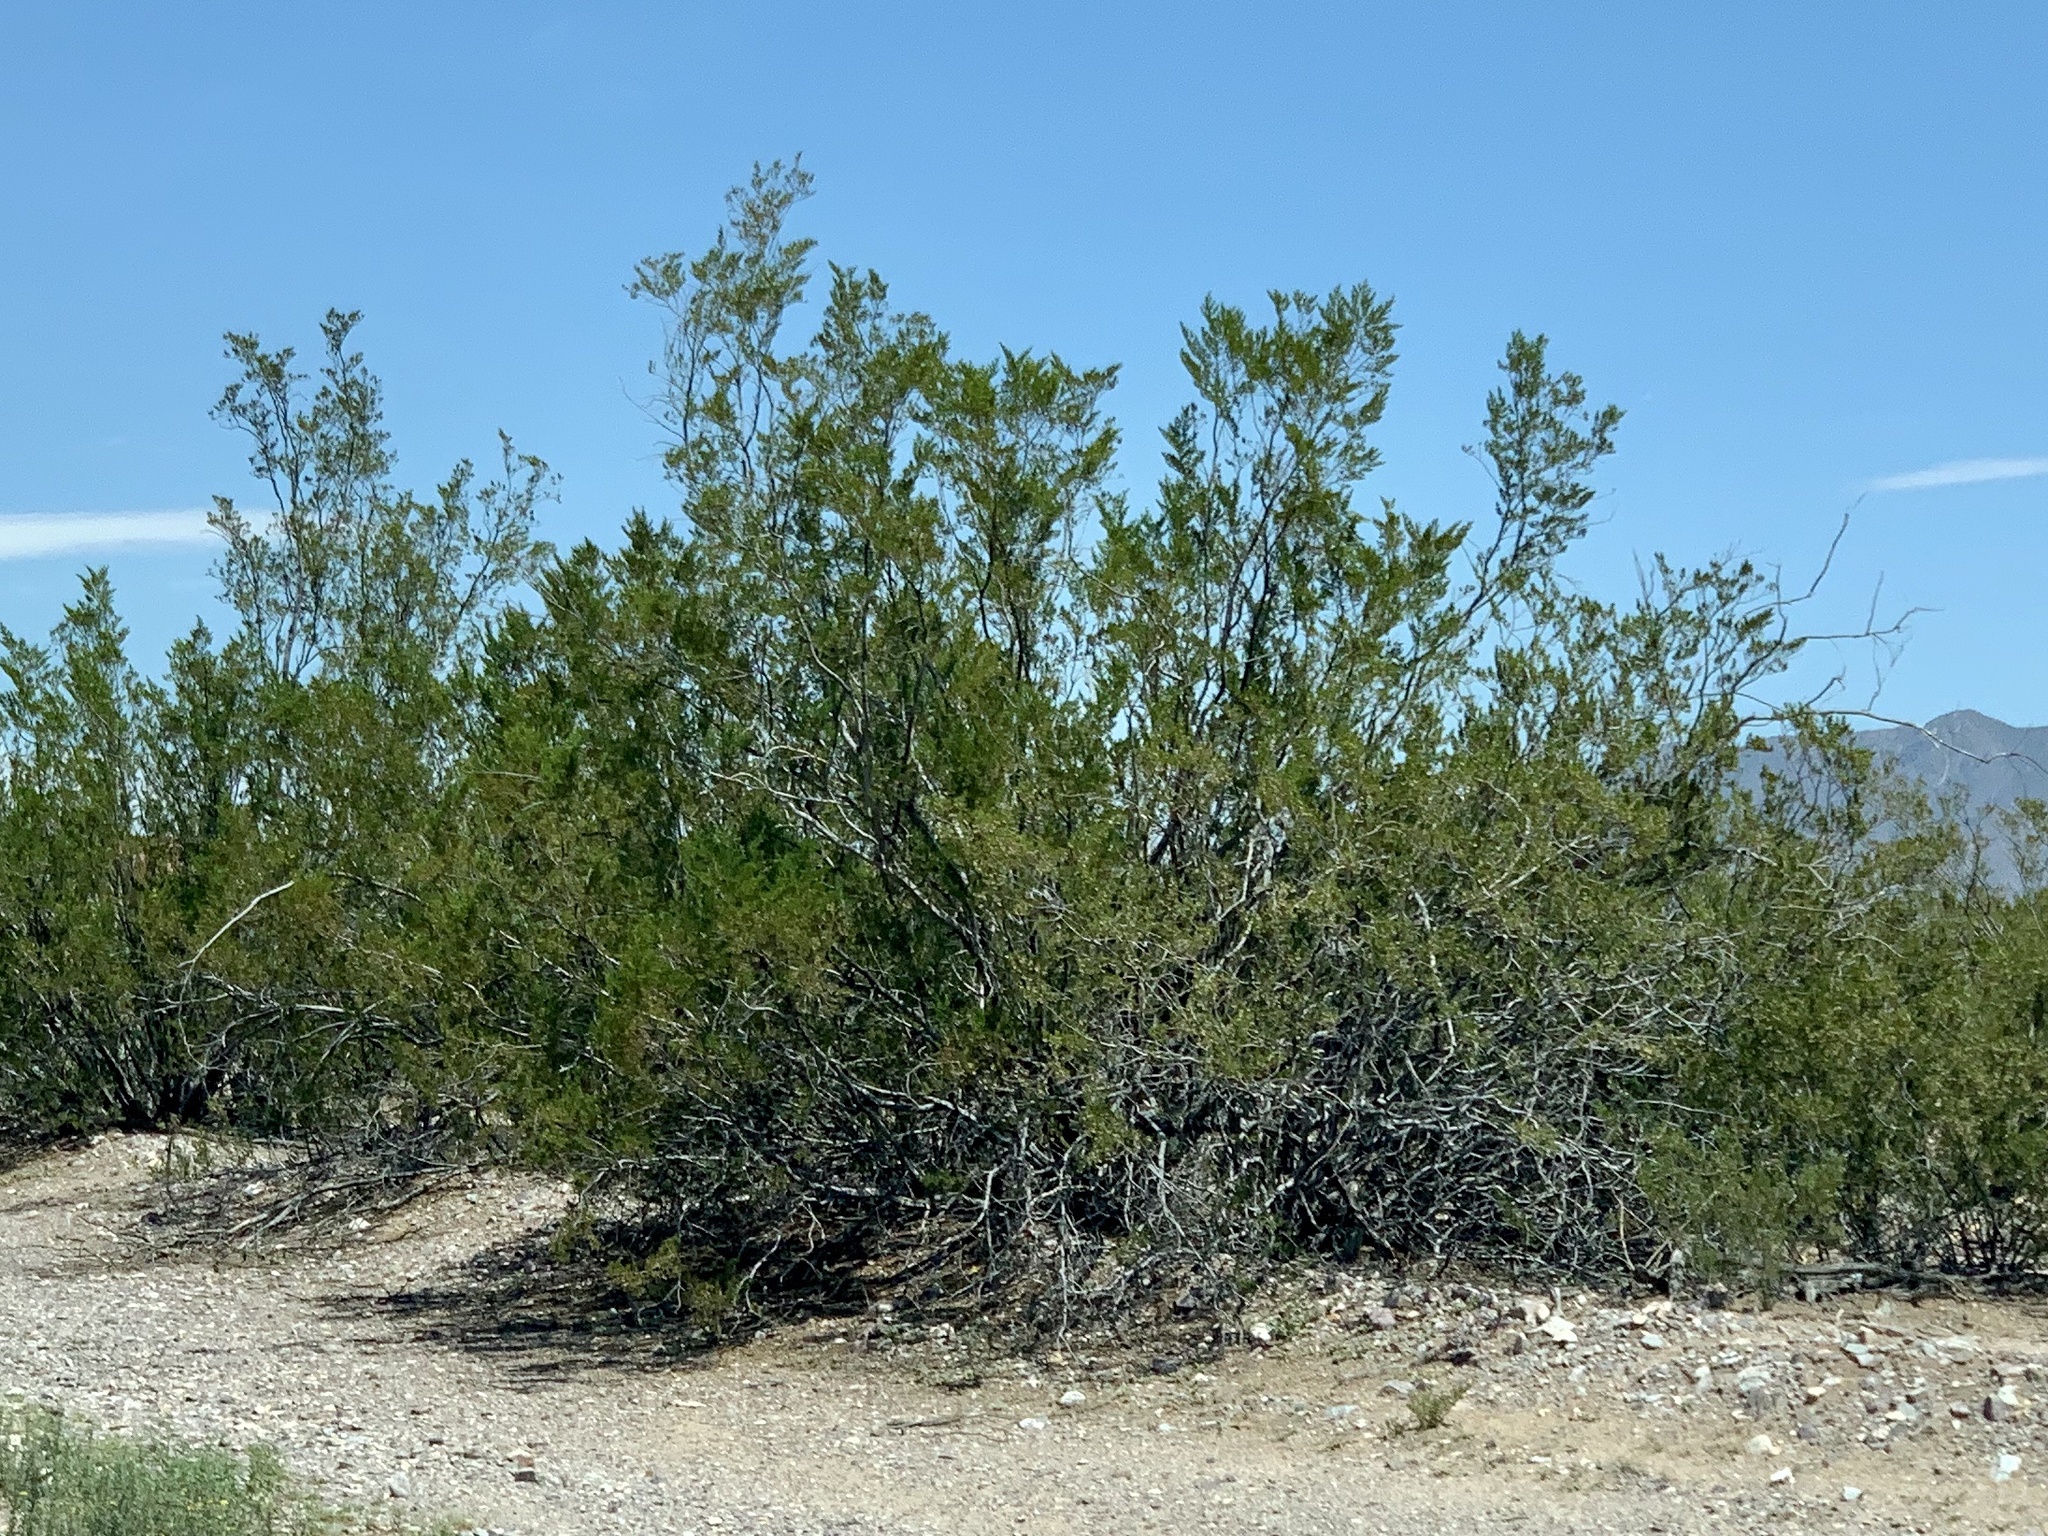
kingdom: Plantae
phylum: Tracheophyta
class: Magnoliopsida
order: Zygophyllales
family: Zygophyllaceae
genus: Larrea
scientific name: Larrea tridentata
